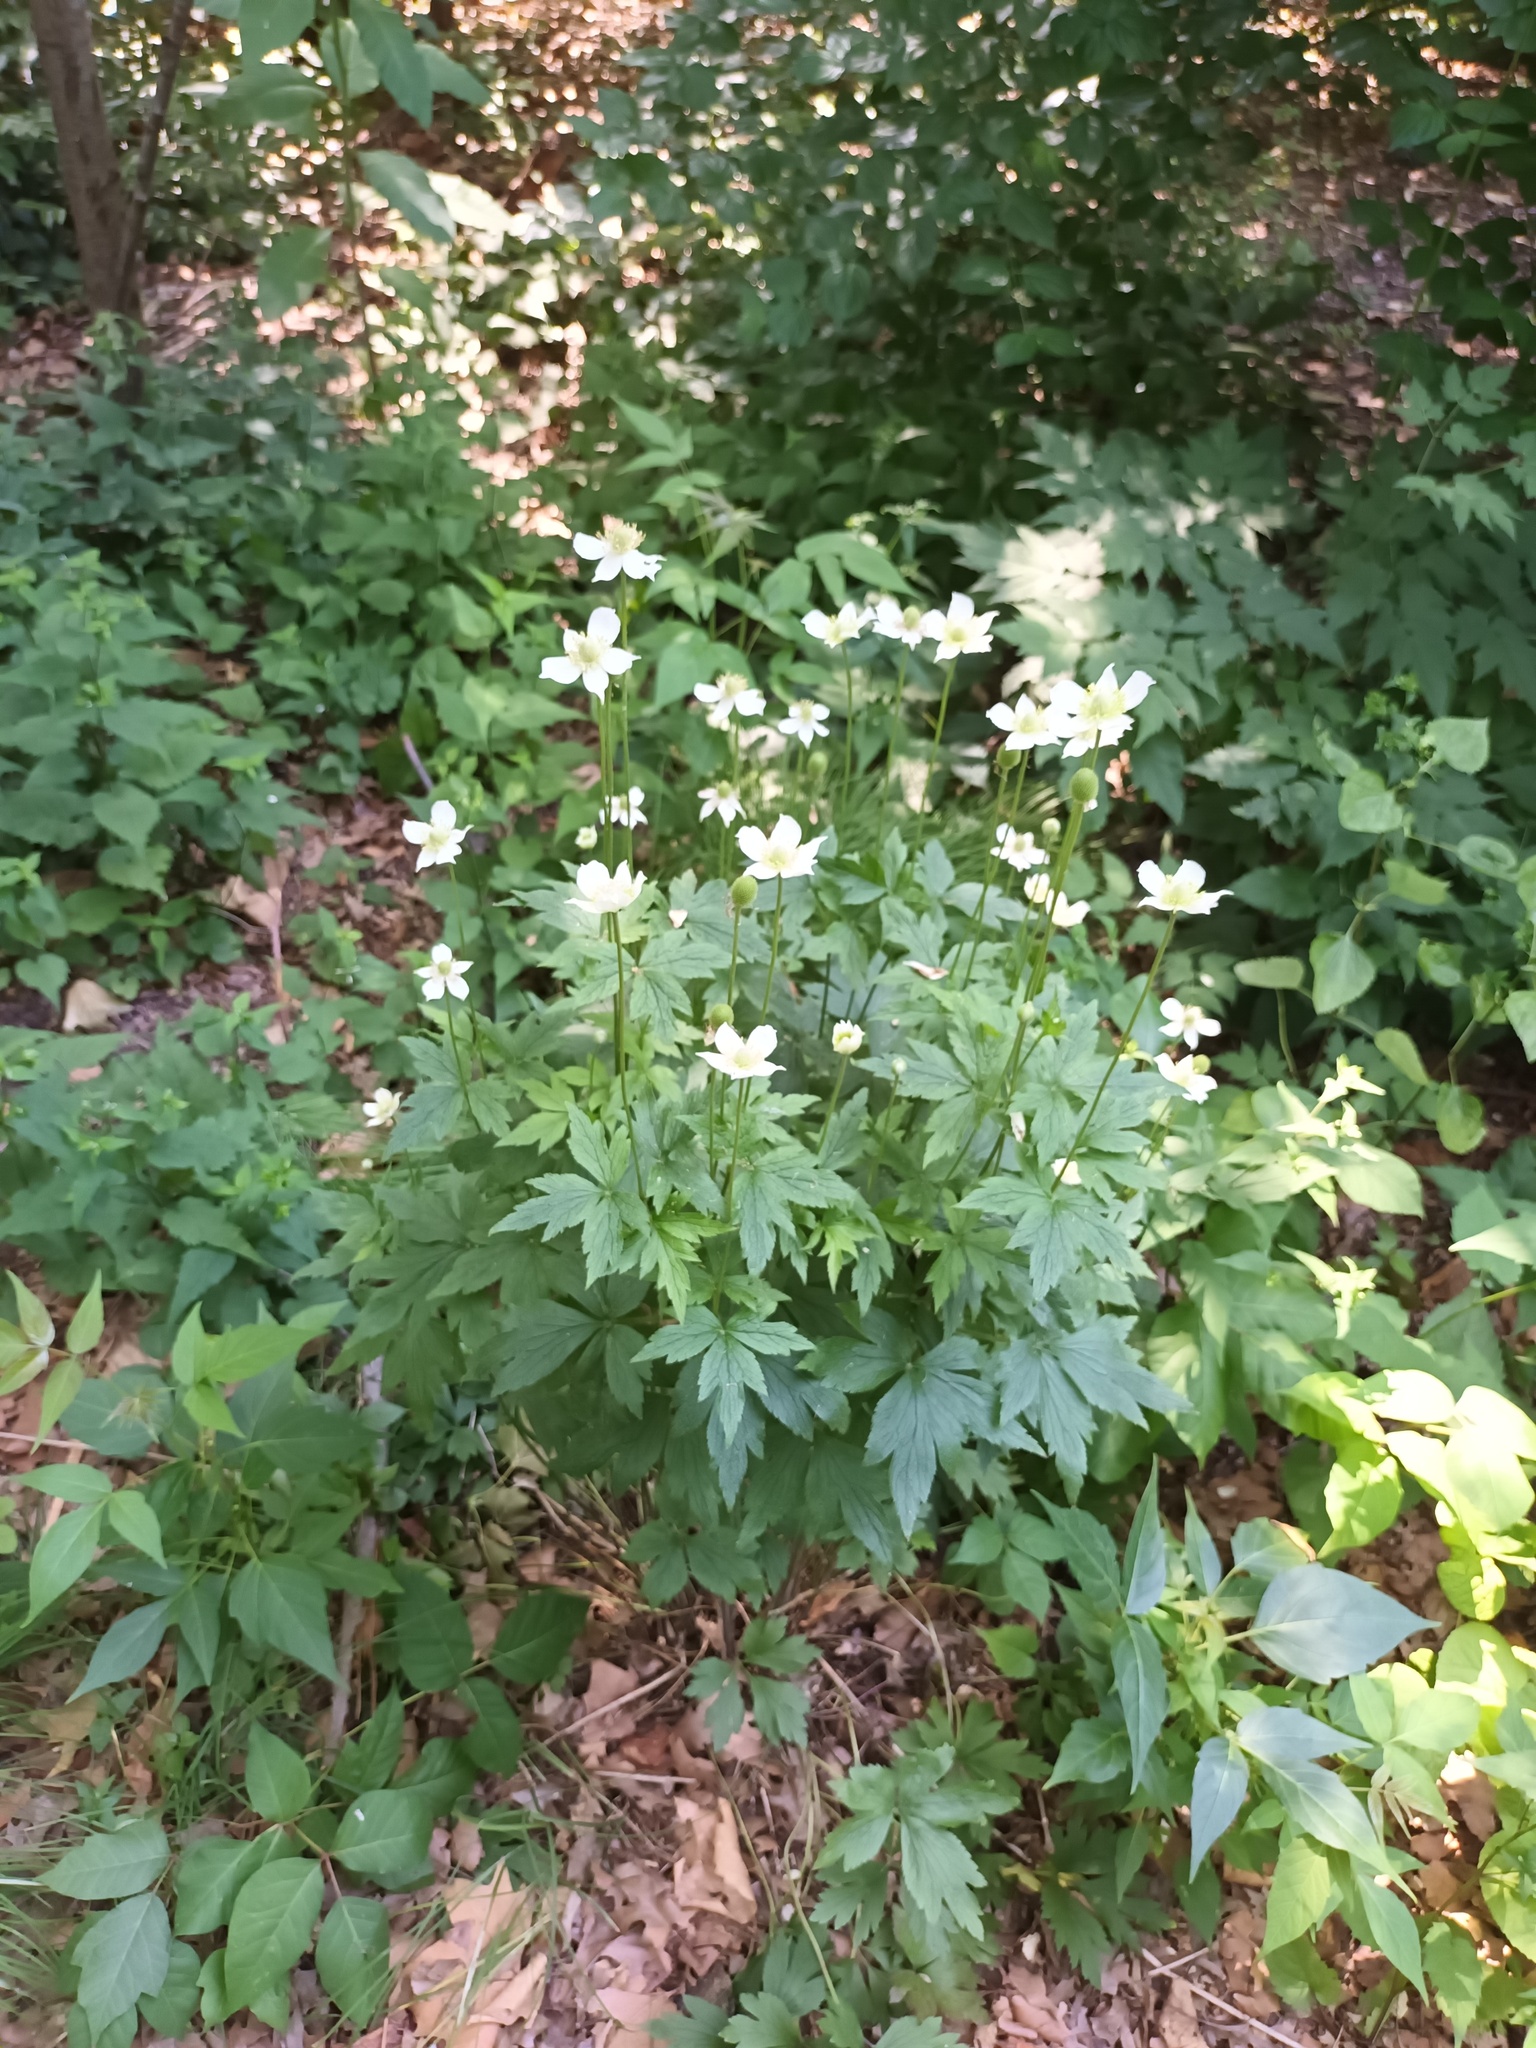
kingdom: Plantae
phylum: Tracheophyta
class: Magnoliopsida
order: Ranunculales
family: Ranunculaceae
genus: Anemone
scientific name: Anemone virginiana
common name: Tall anemone
